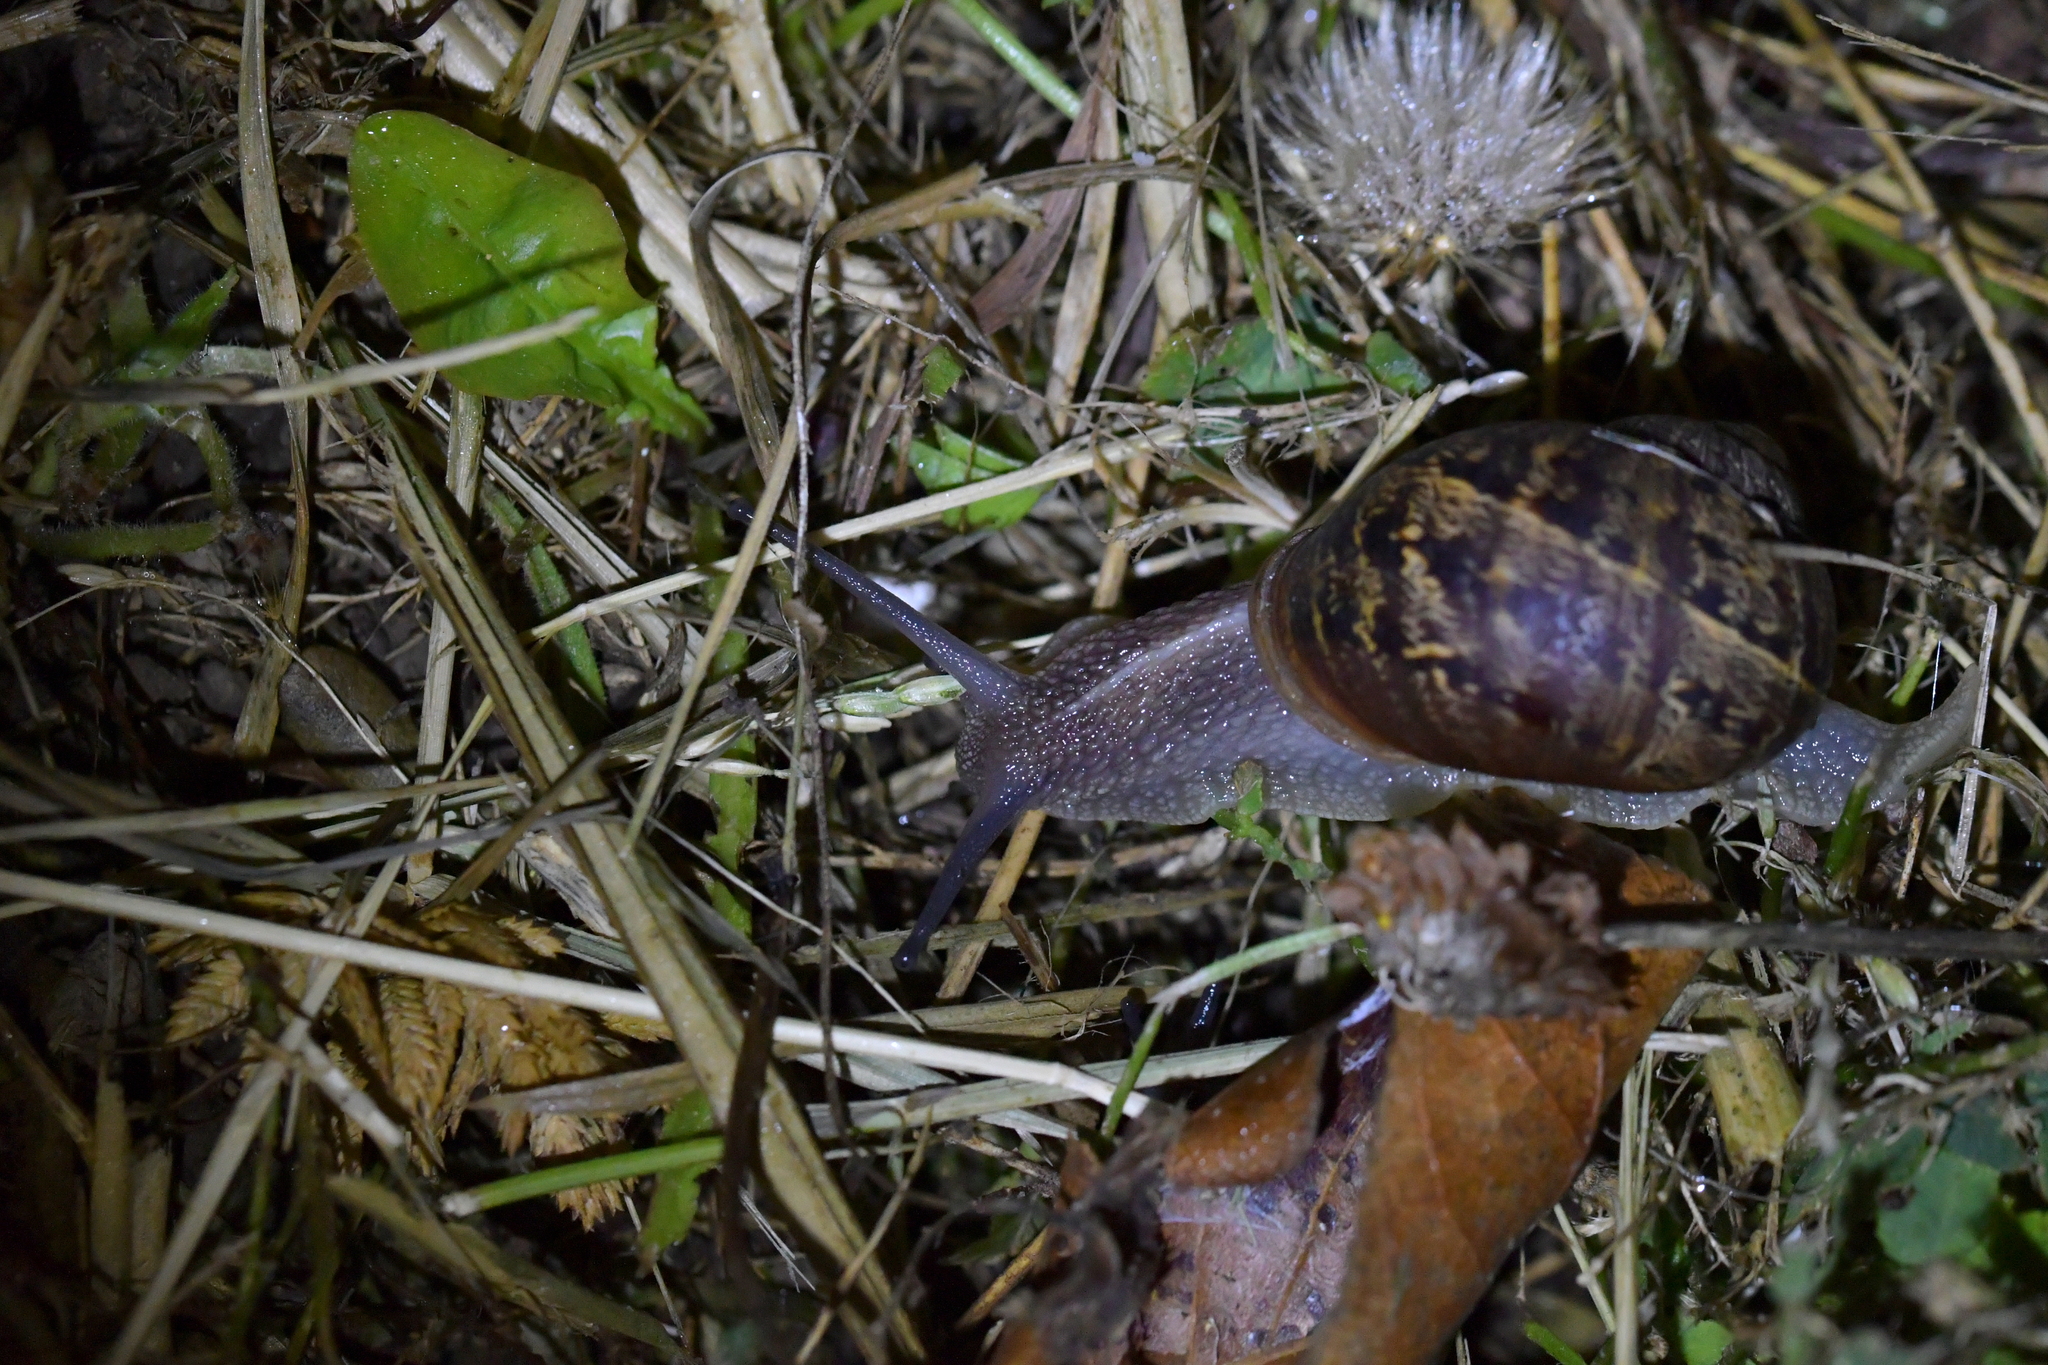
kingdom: Animalia
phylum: Mollusca
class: Gastropoda
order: Stylommatophora
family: Helicidae
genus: Cornu
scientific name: Cornu aspersum
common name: Brown garden snail
